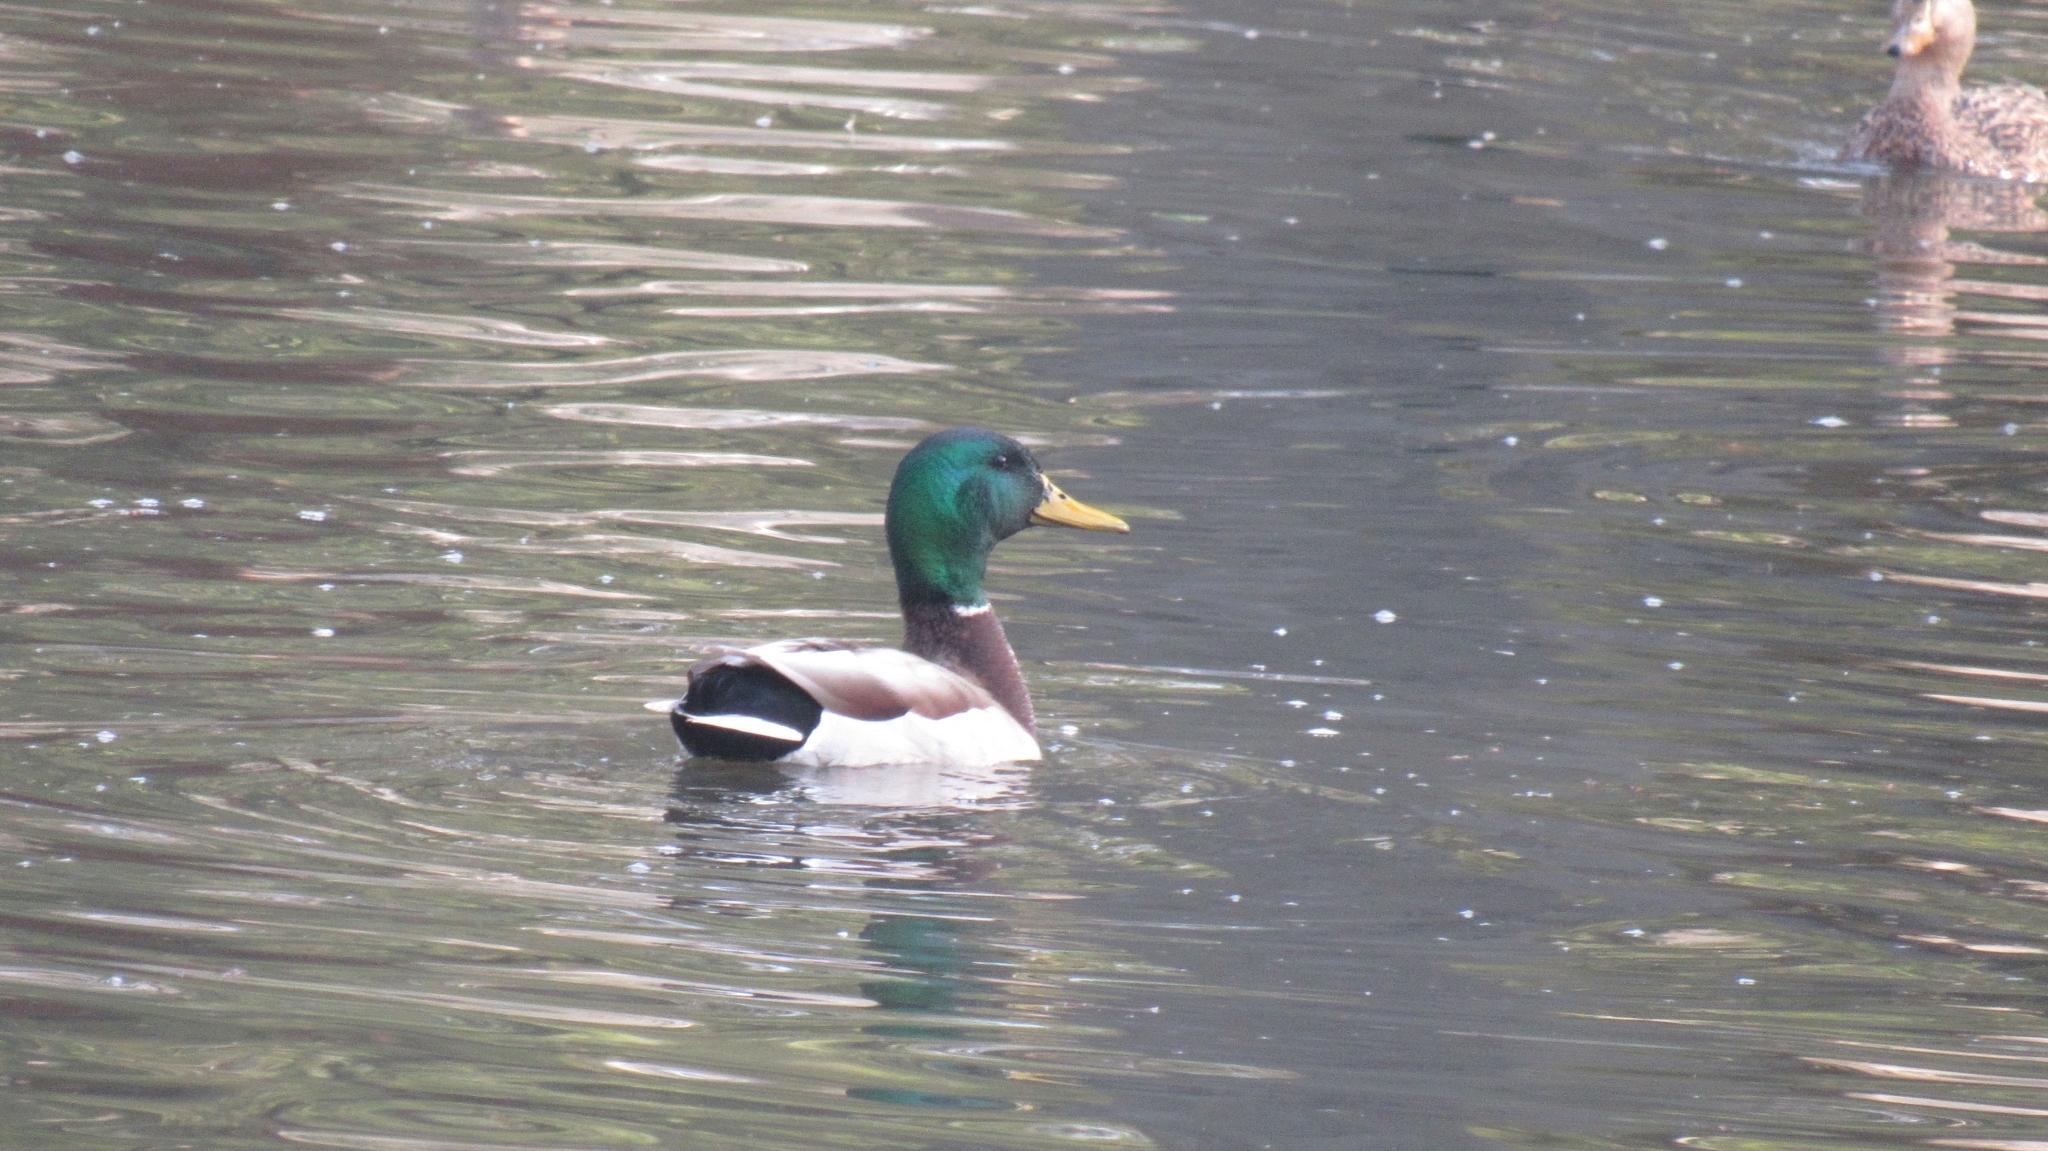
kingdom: Animalia
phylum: Chordata
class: Aves
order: Anseriformes
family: Anatidae
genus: Anas
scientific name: Anas platyrhynchos
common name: Mallard
